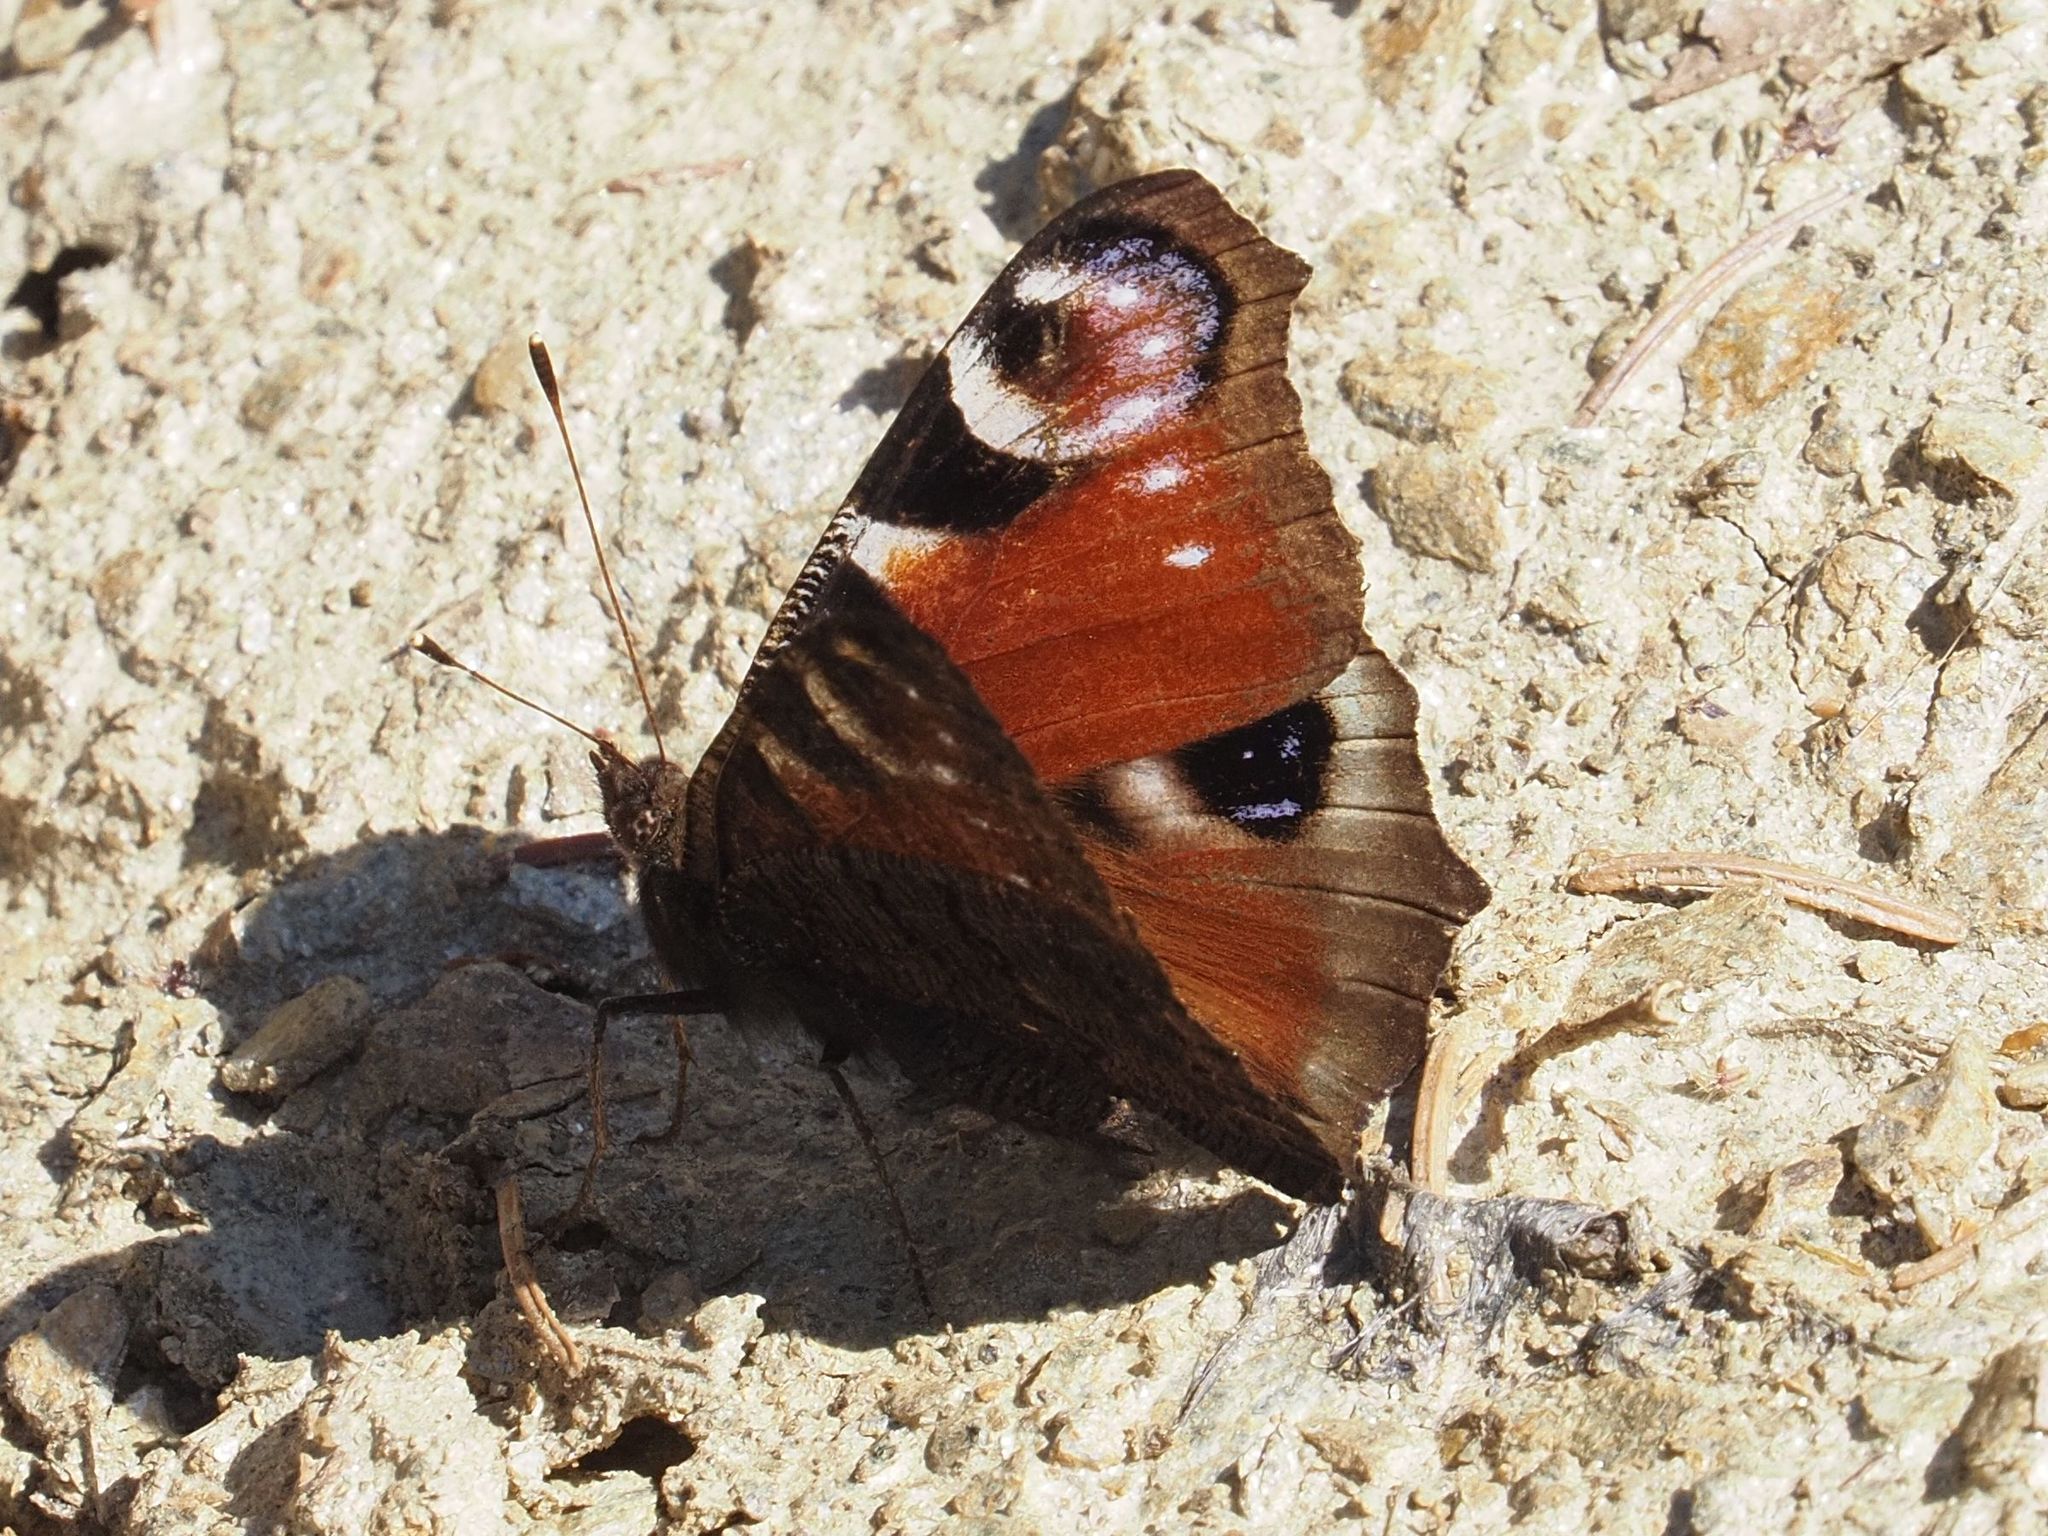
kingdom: Animalia
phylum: Arthropoda
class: Insecta
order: Lepidoptera
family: Nymphalidae
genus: Aglais
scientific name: Aglais io
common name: Peacock
